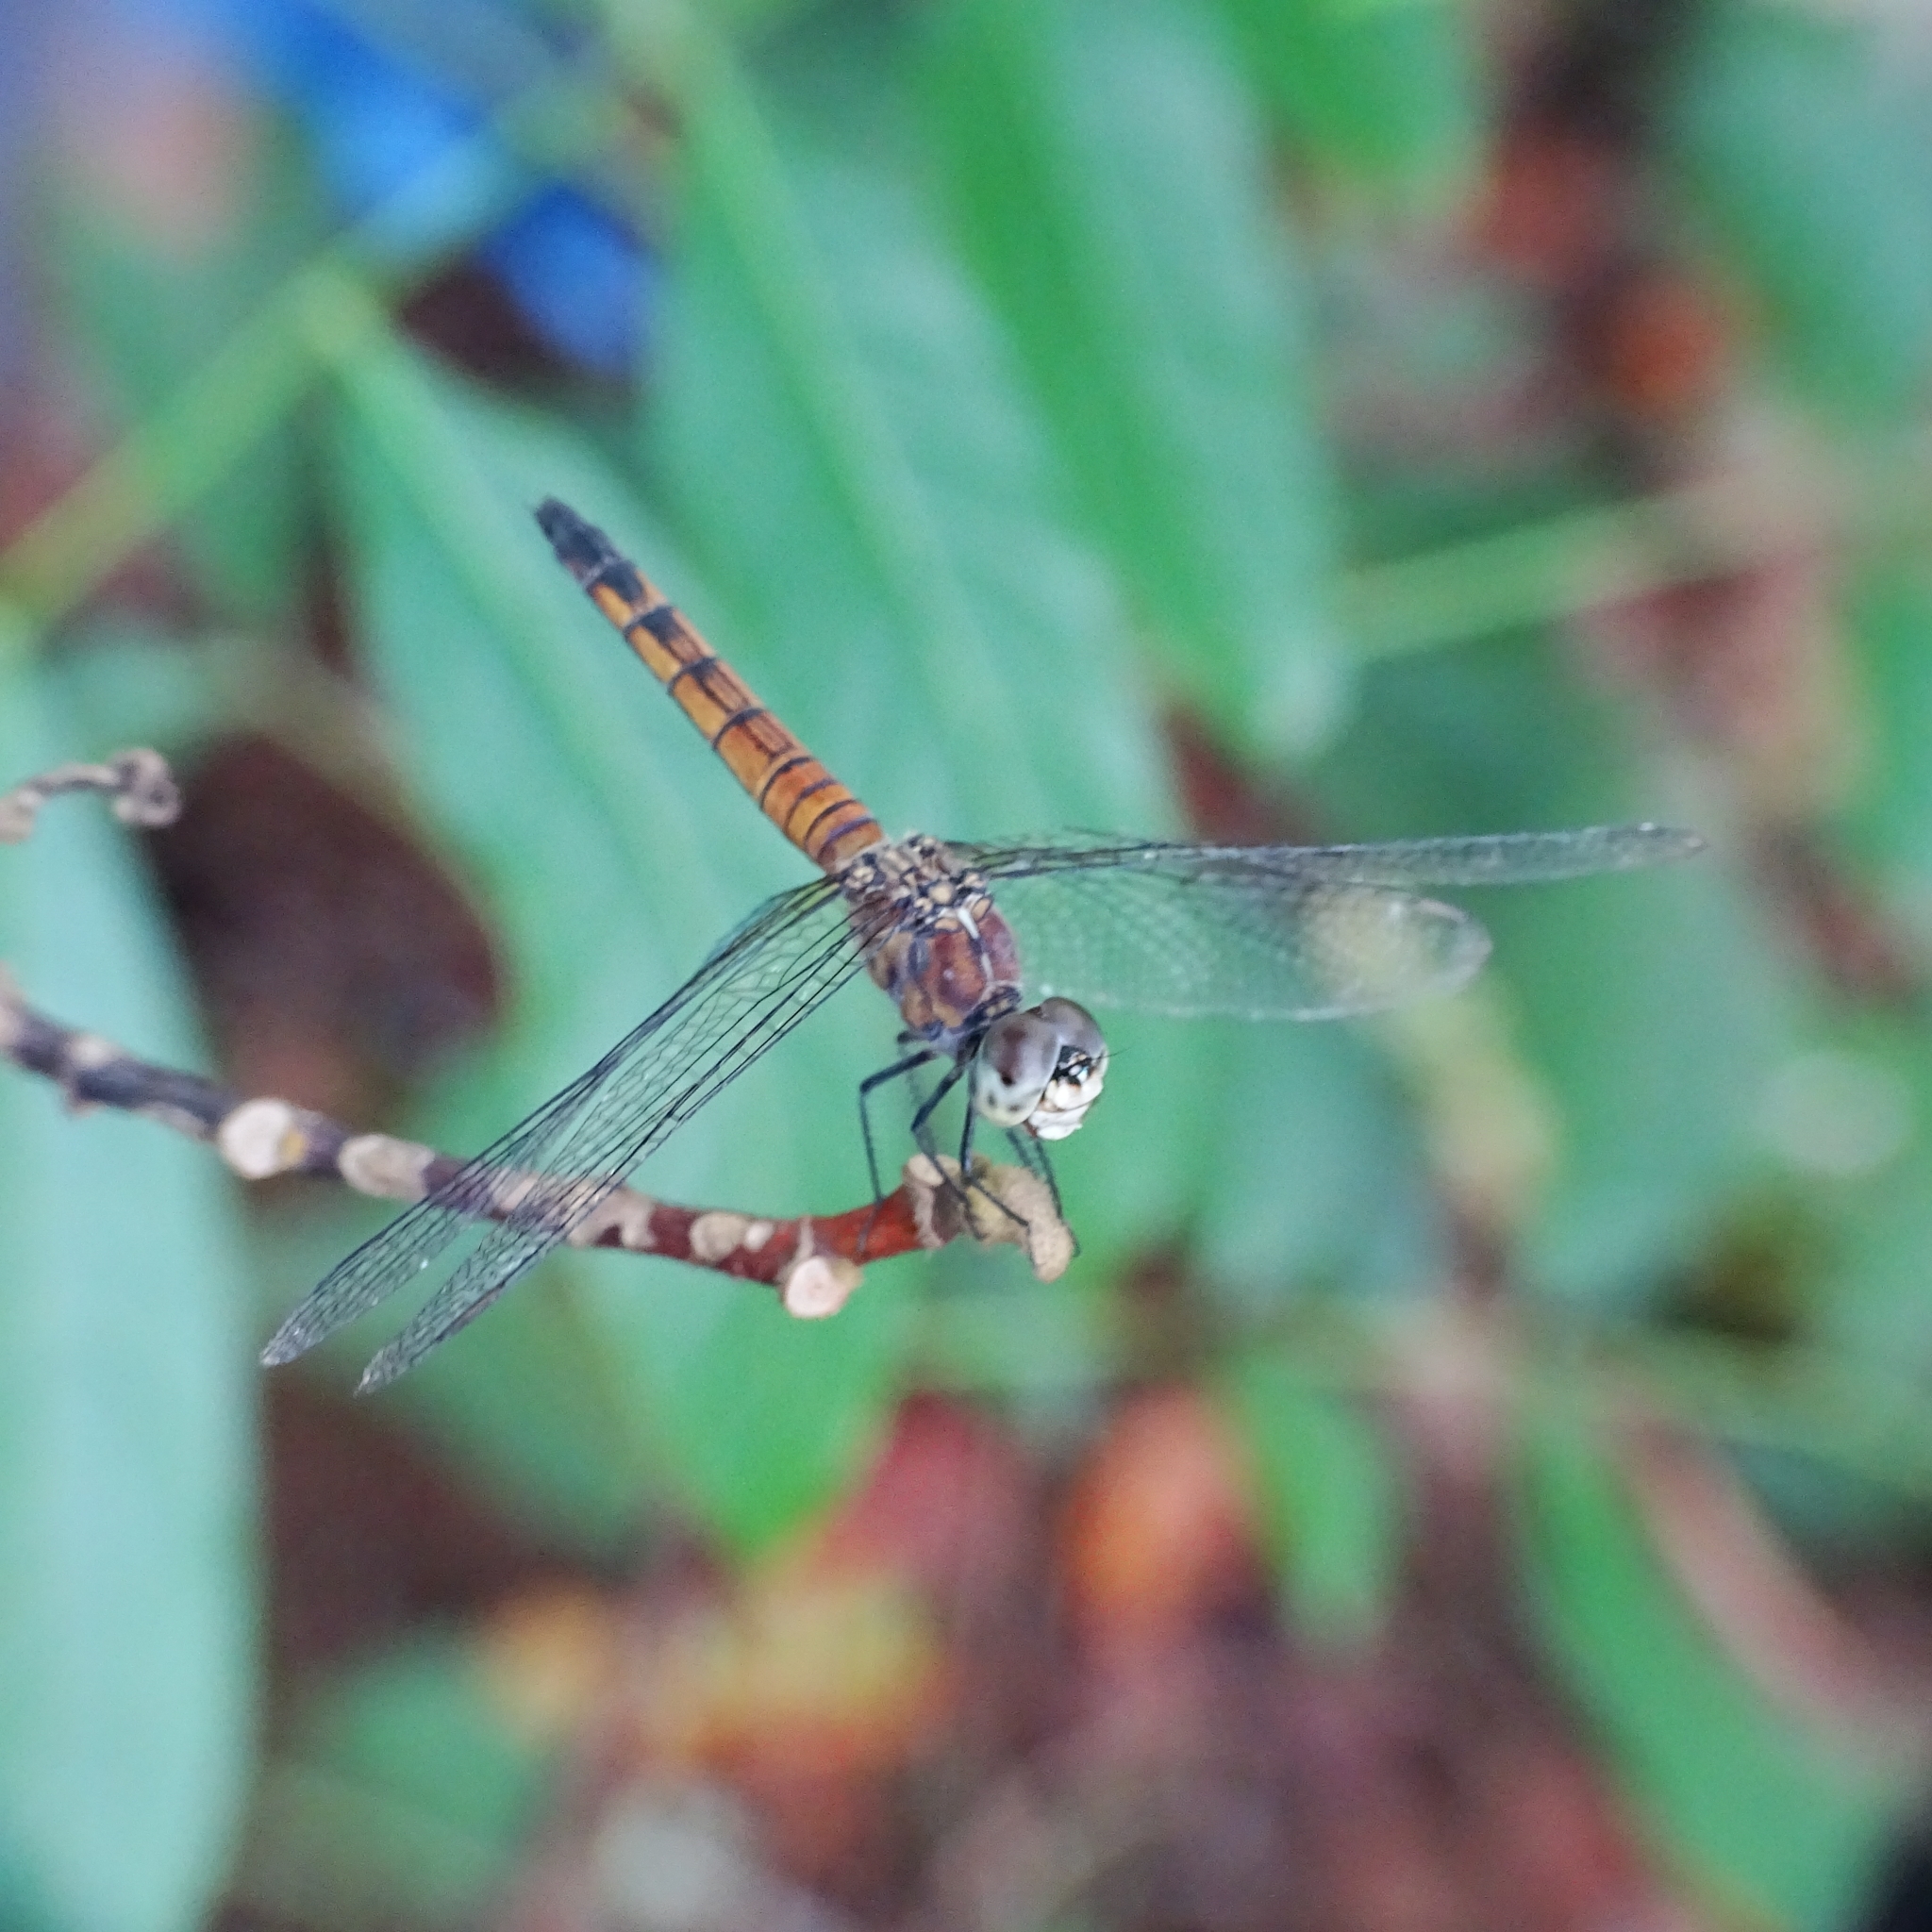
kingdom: Animalia
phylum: Arthropoda
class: Insecta
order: Odonata
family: Libellulidae
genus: Brachydiplax
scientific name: Brachydiplax chalybea
